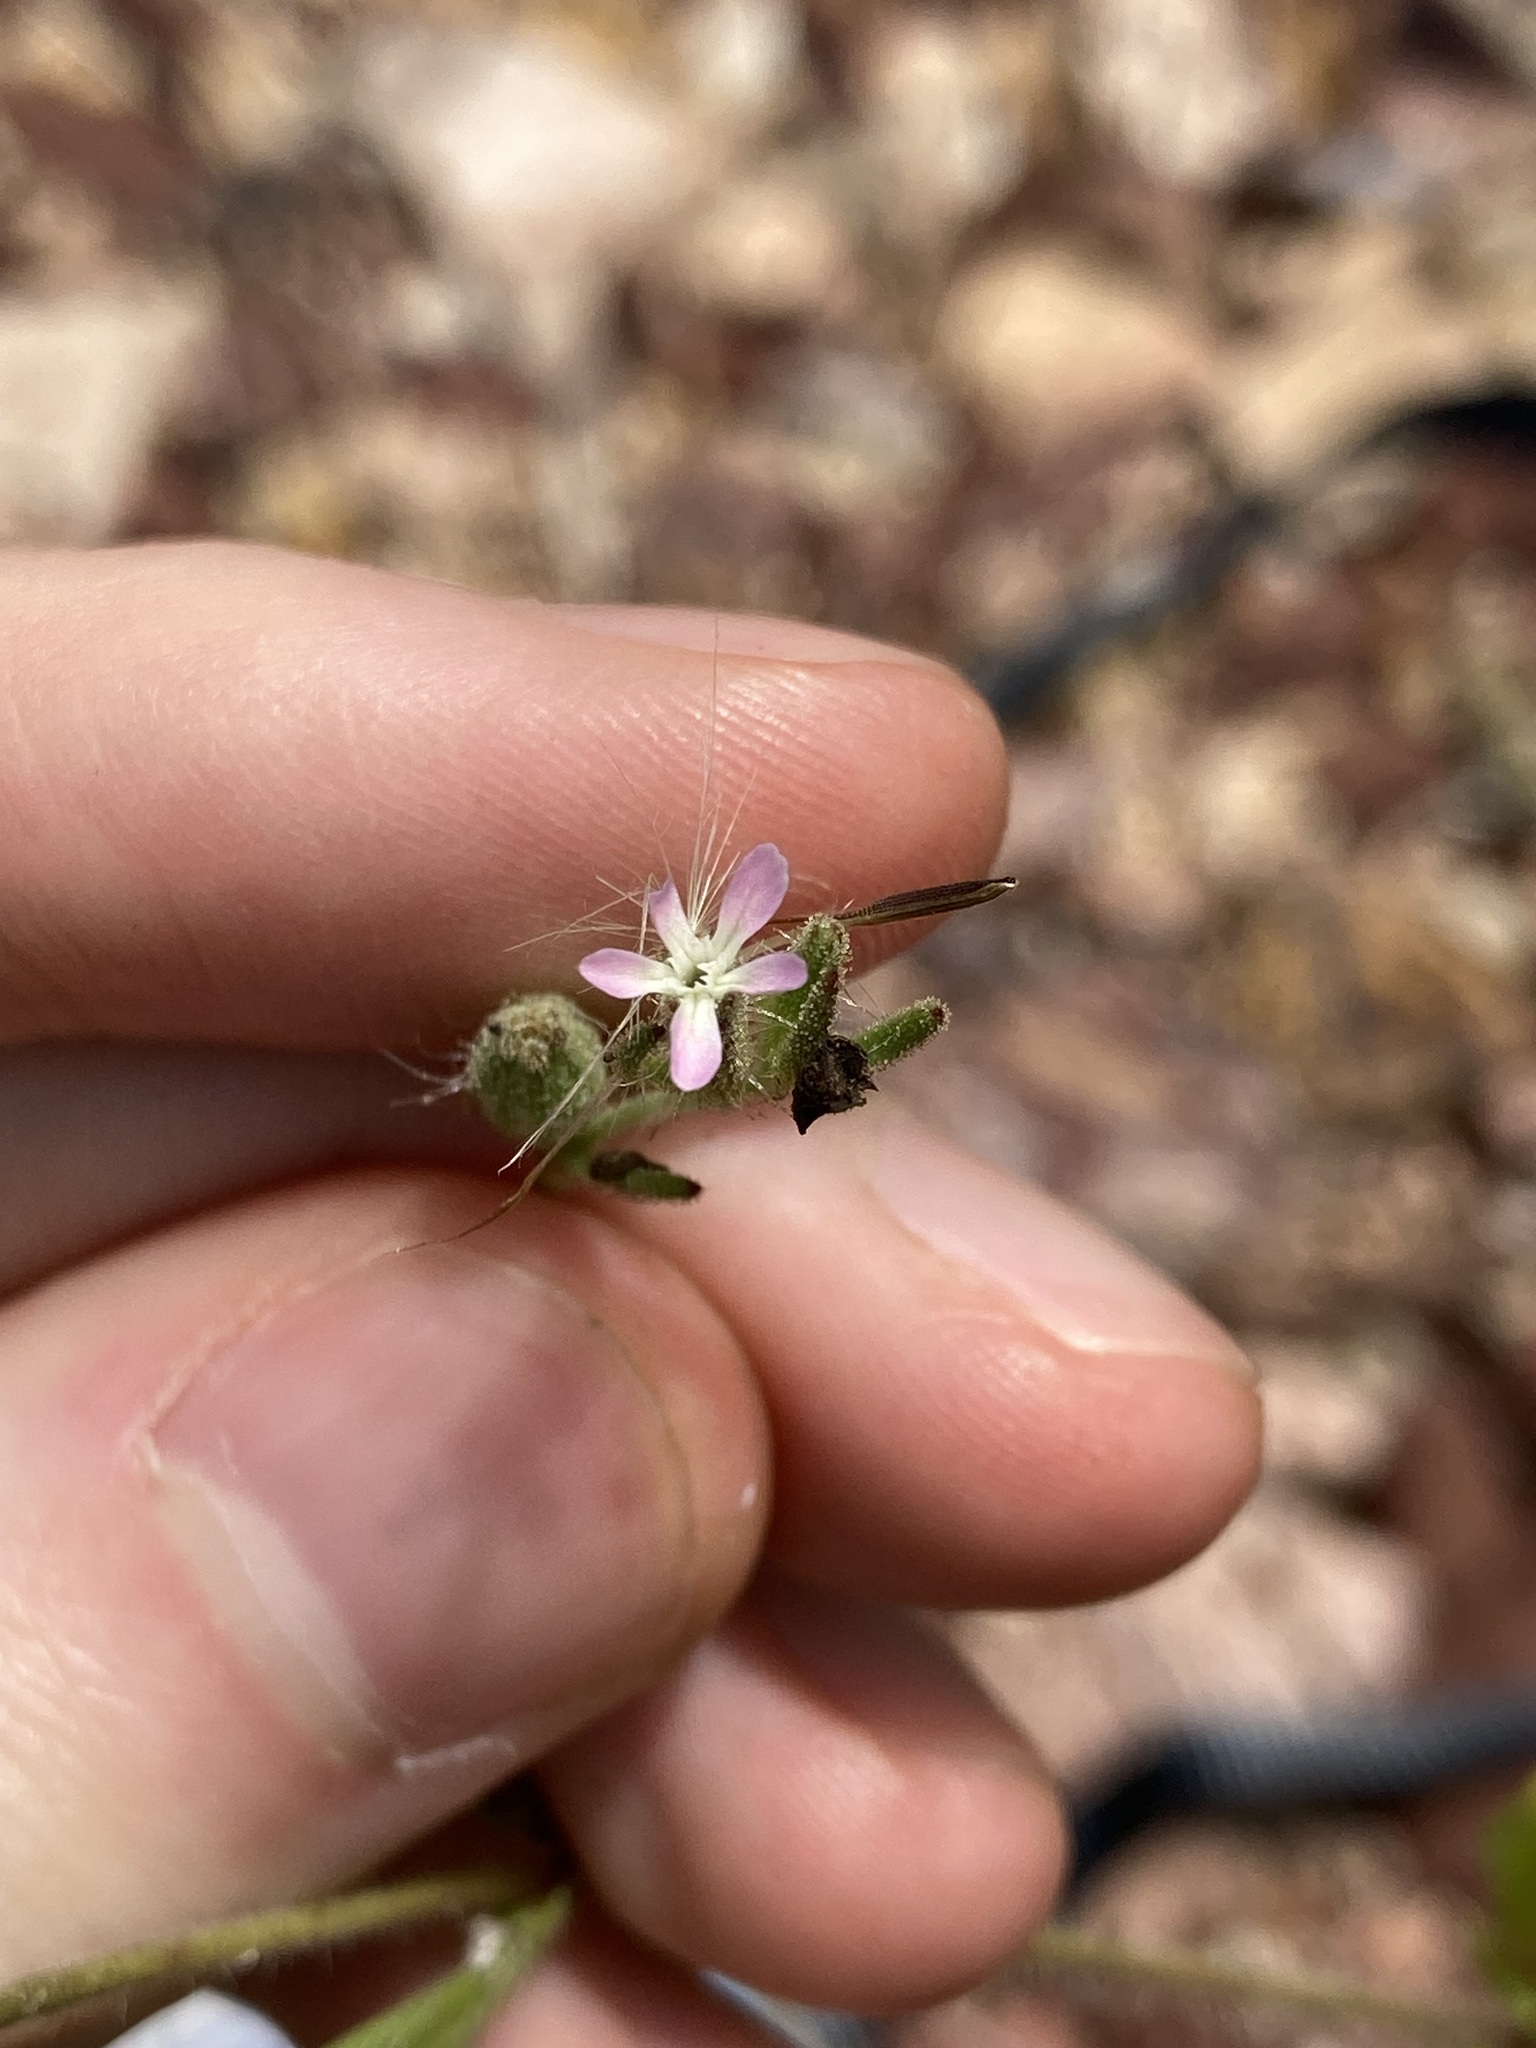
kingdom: Plantae
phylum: Tracheophyta
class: Magnoliopsida
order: Caryophyllales
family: Caryophyllaceae
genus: Silene
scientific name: Silene gallica
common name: Small-flowered catchfly
